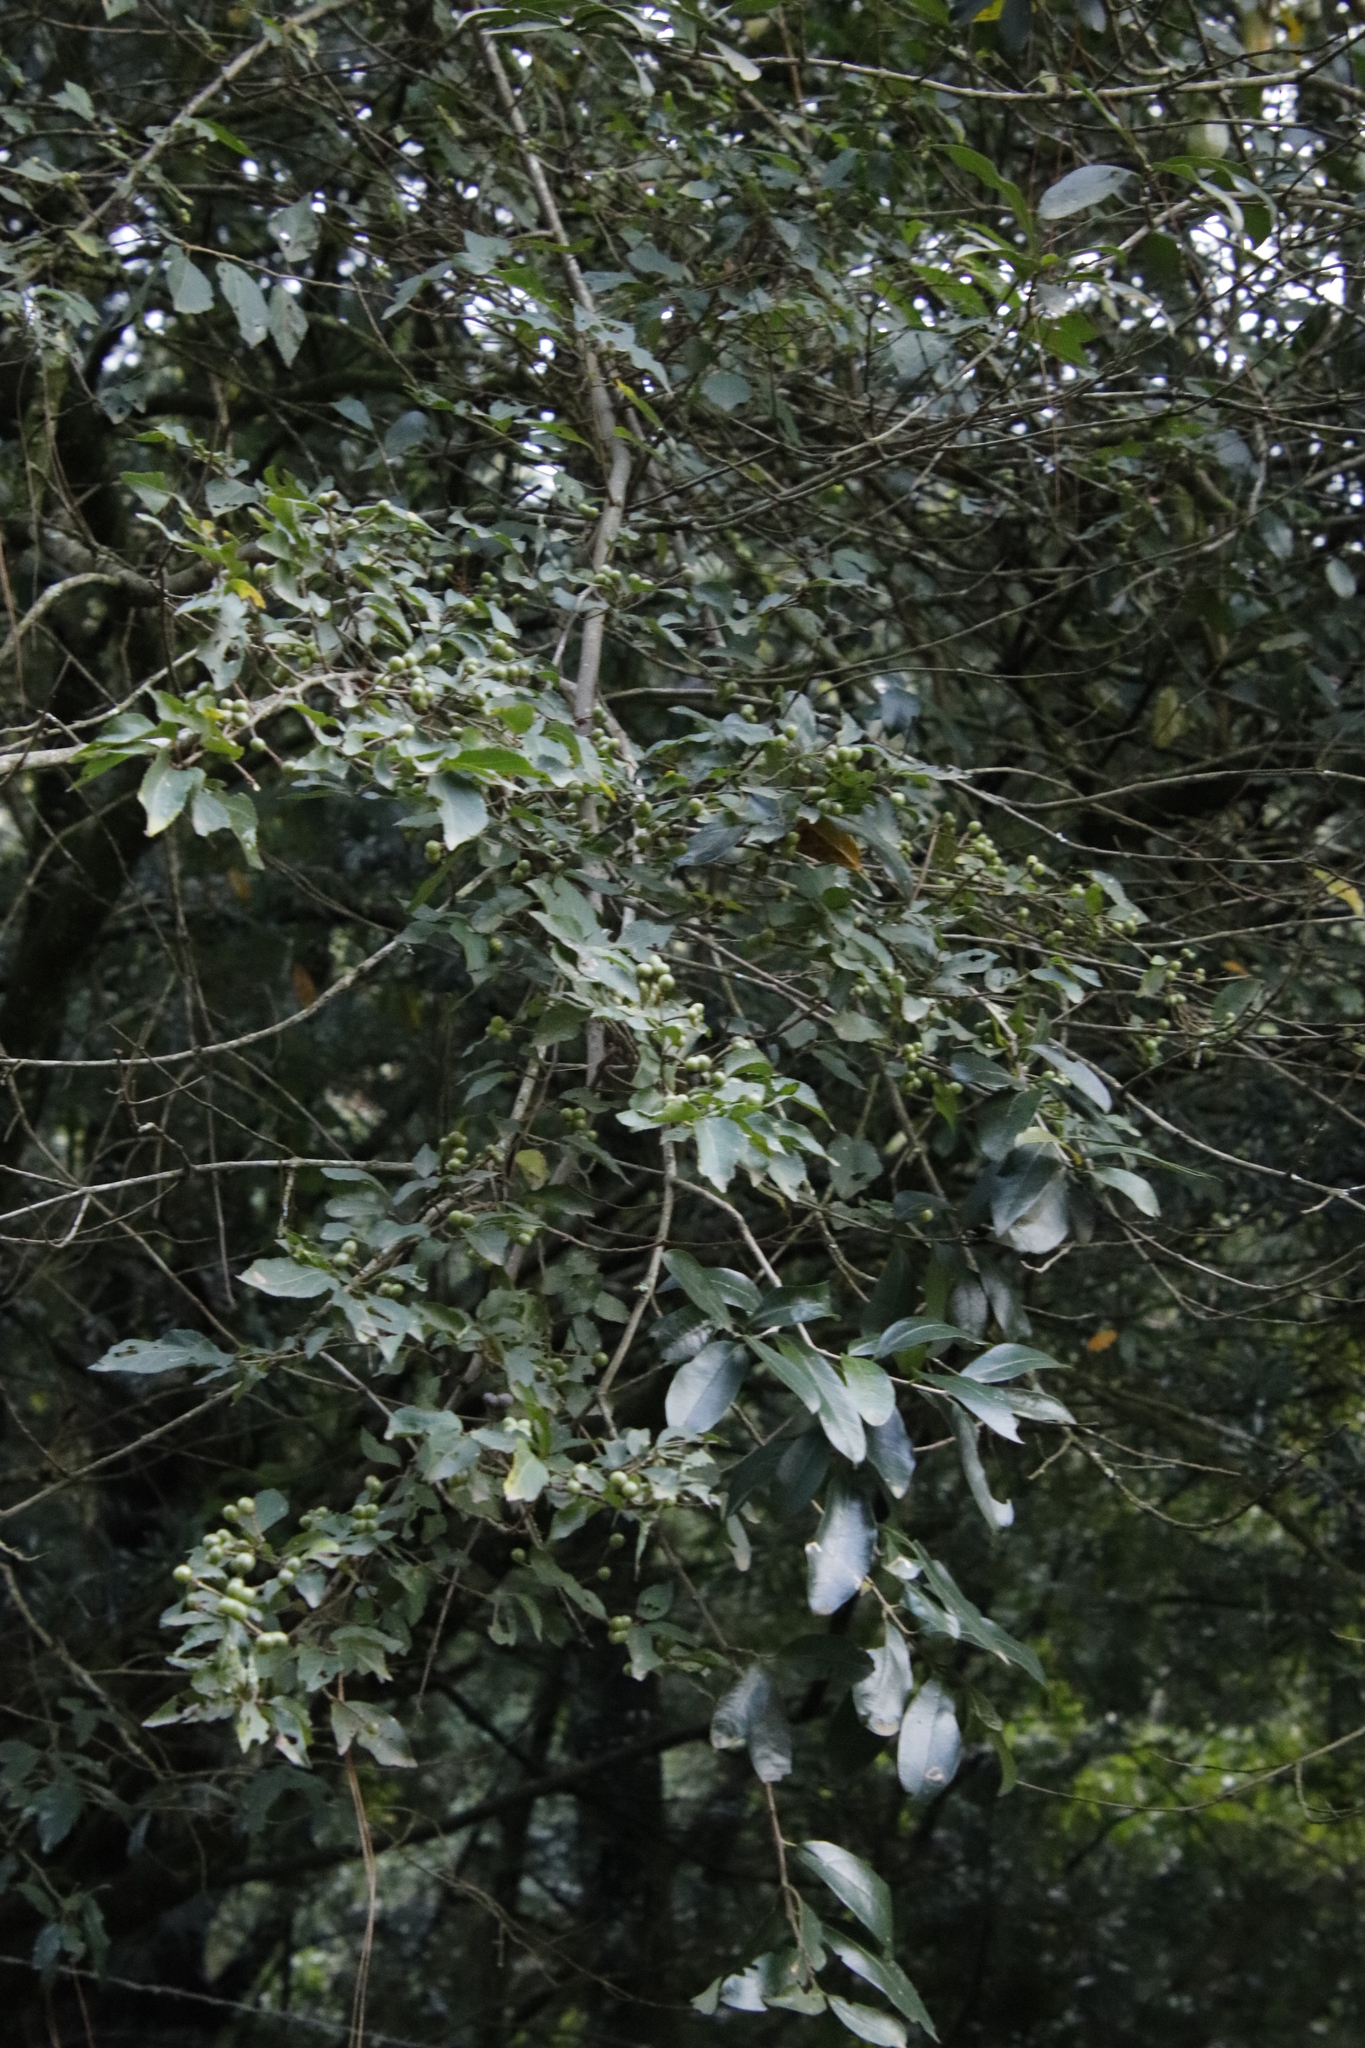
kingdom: Plantae
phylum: Tracheophyta
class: Magnoliopsida
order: Malvales
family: Malvaceae
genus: Grewia
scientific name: Grewia occidentalis
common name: Crossberry
